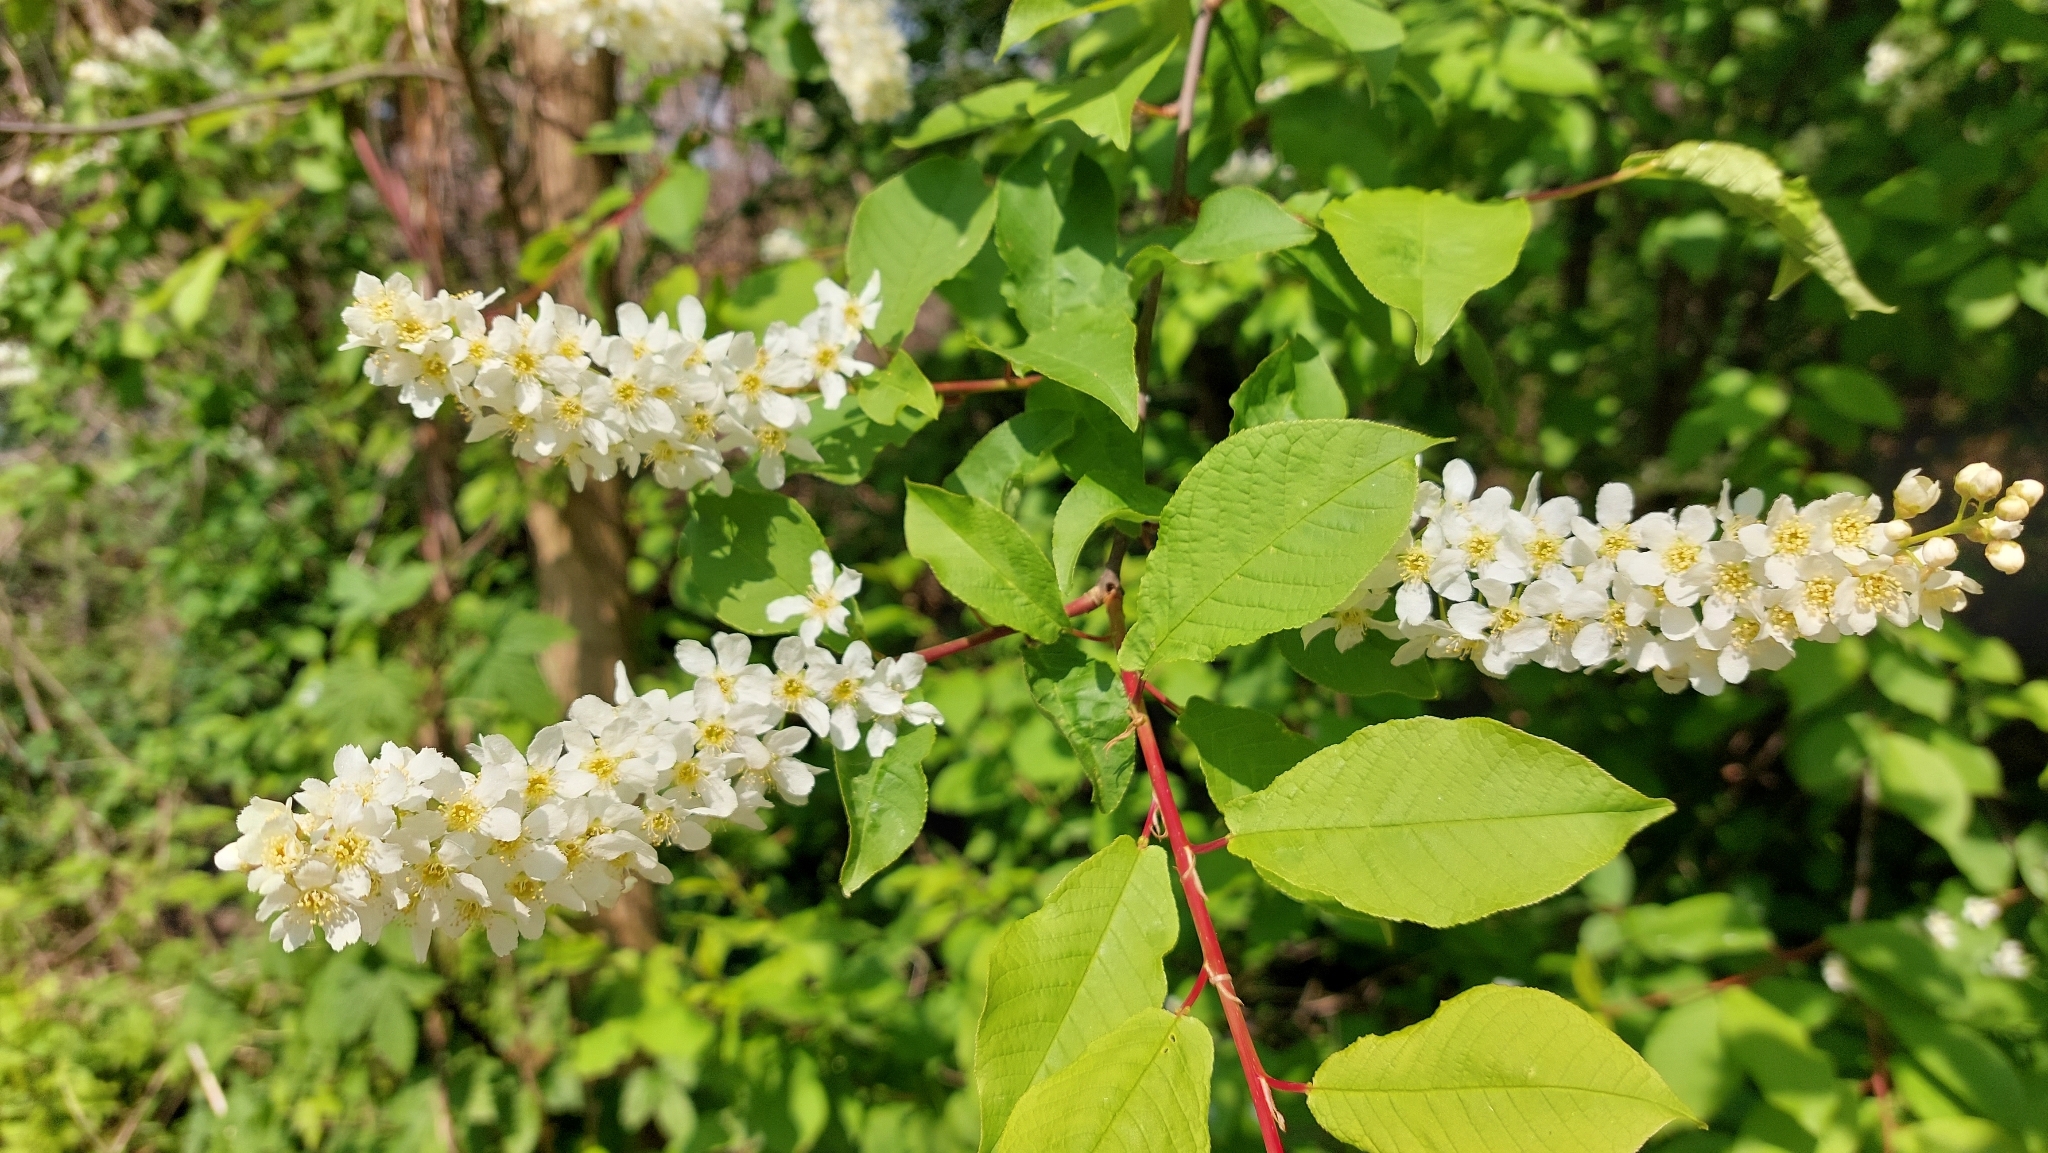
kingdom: Plantae
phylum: Tracheophyta
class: Magnoliopsida
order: Rosales
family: Rosaceae
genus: Prunus
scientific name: Prunus padus
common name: Bird cherry
